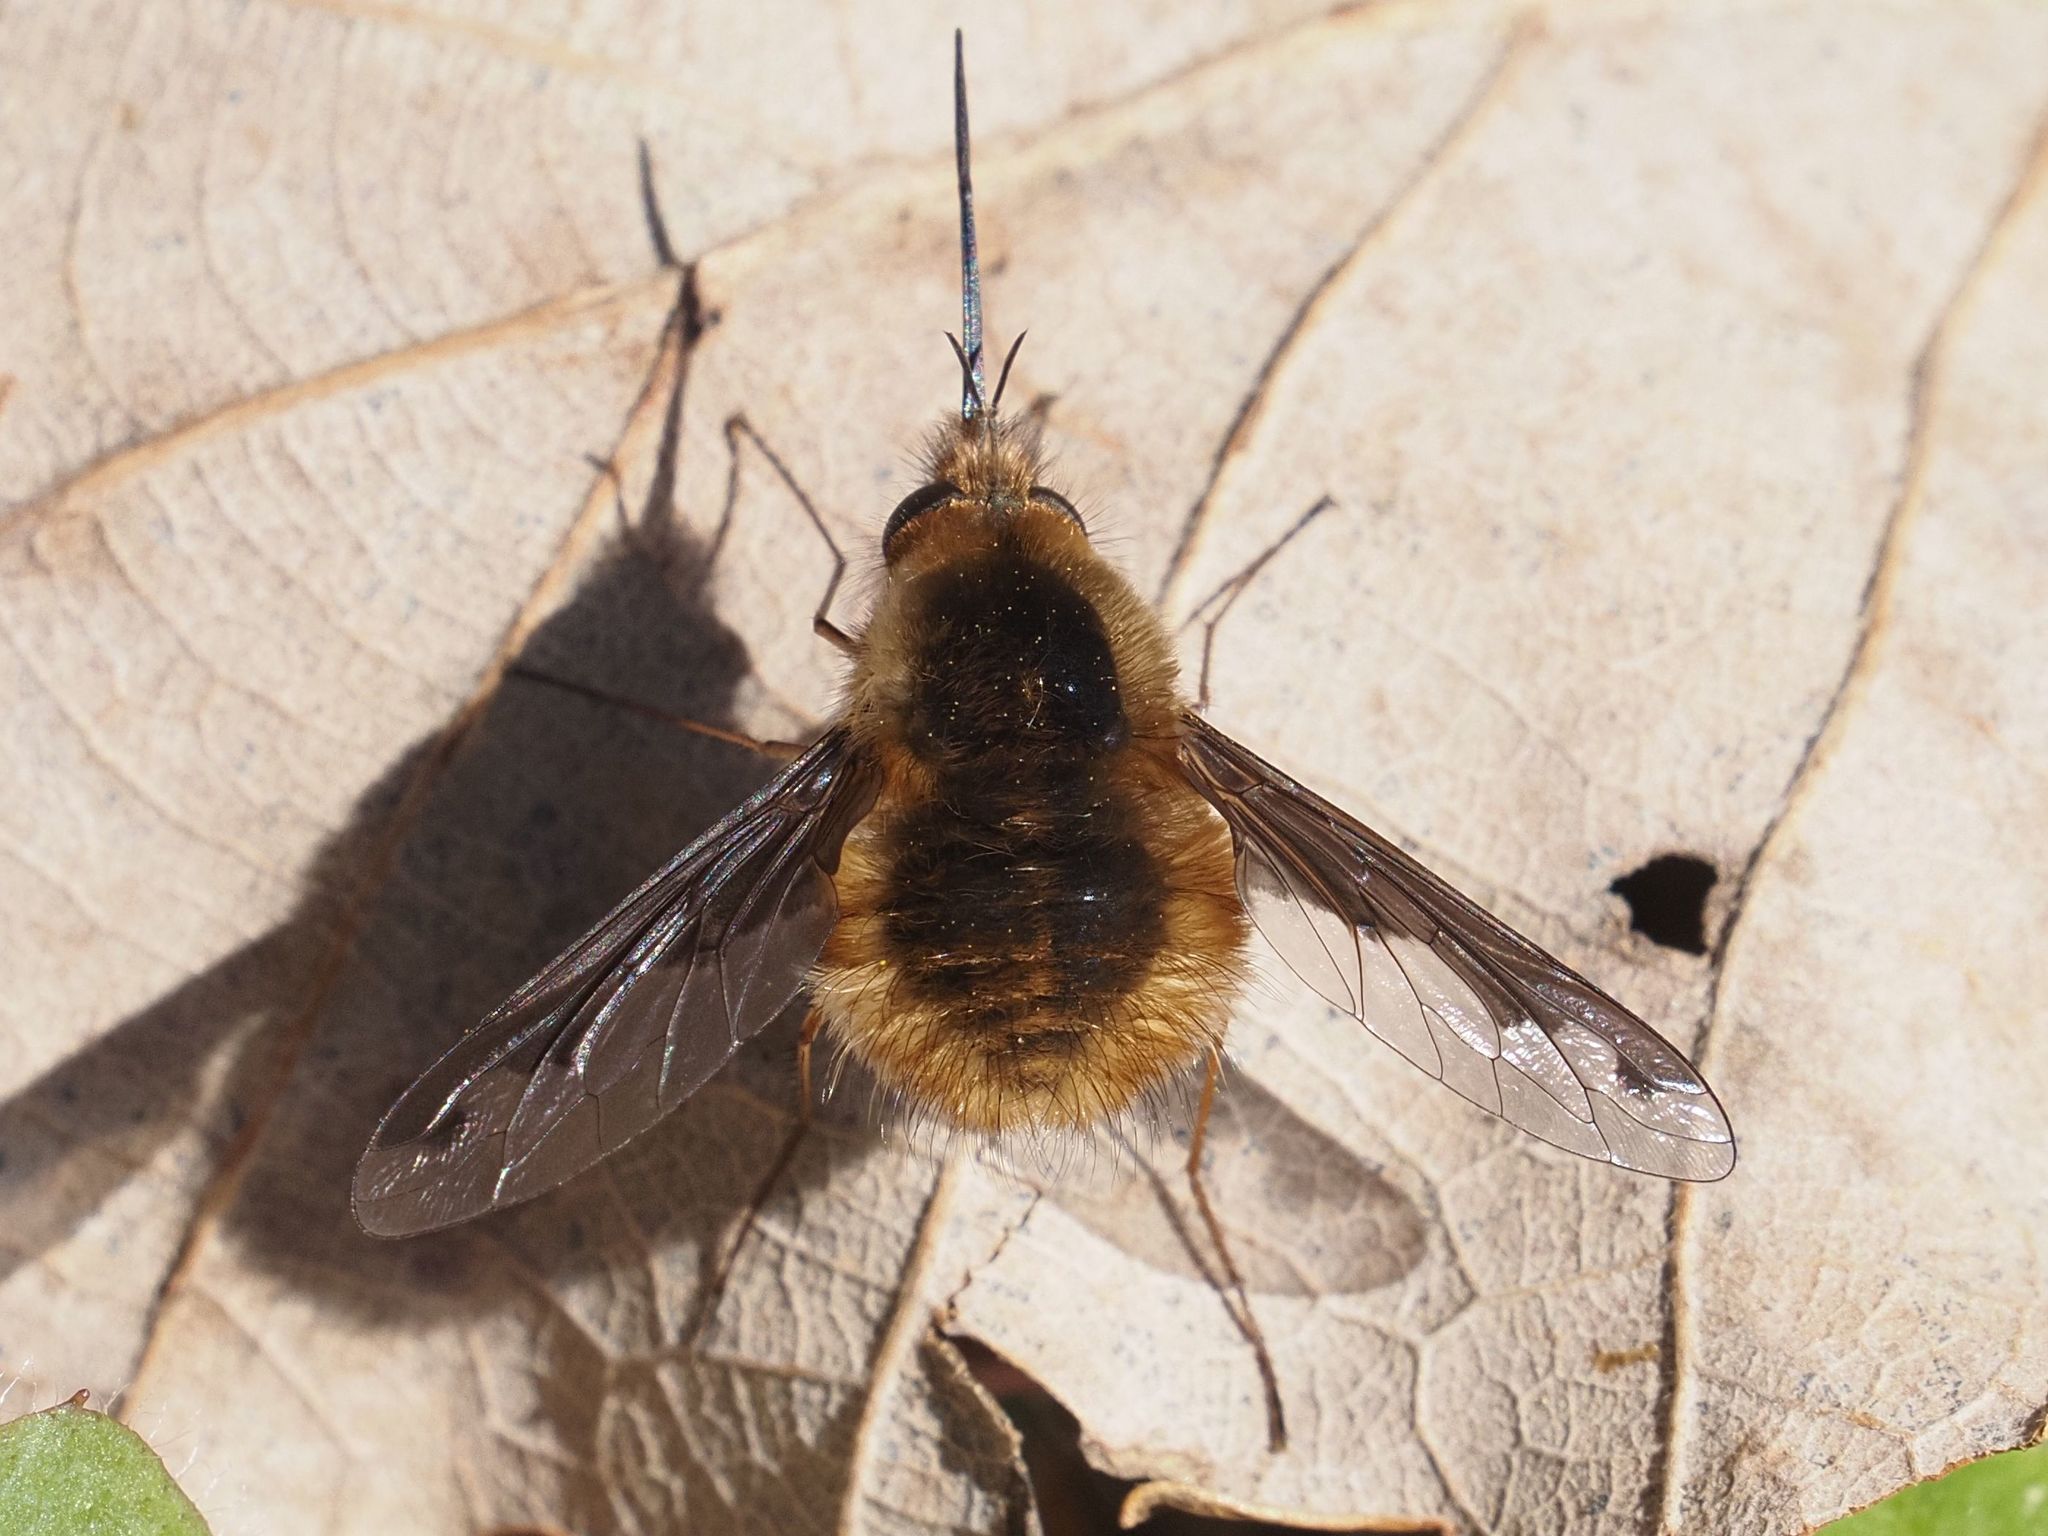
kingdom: Animalia
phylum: Arthropoda
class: Insecta
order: Diptera
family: Bombyliidae
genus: Bombylius
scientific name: Bombylius major
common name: Bee fly
